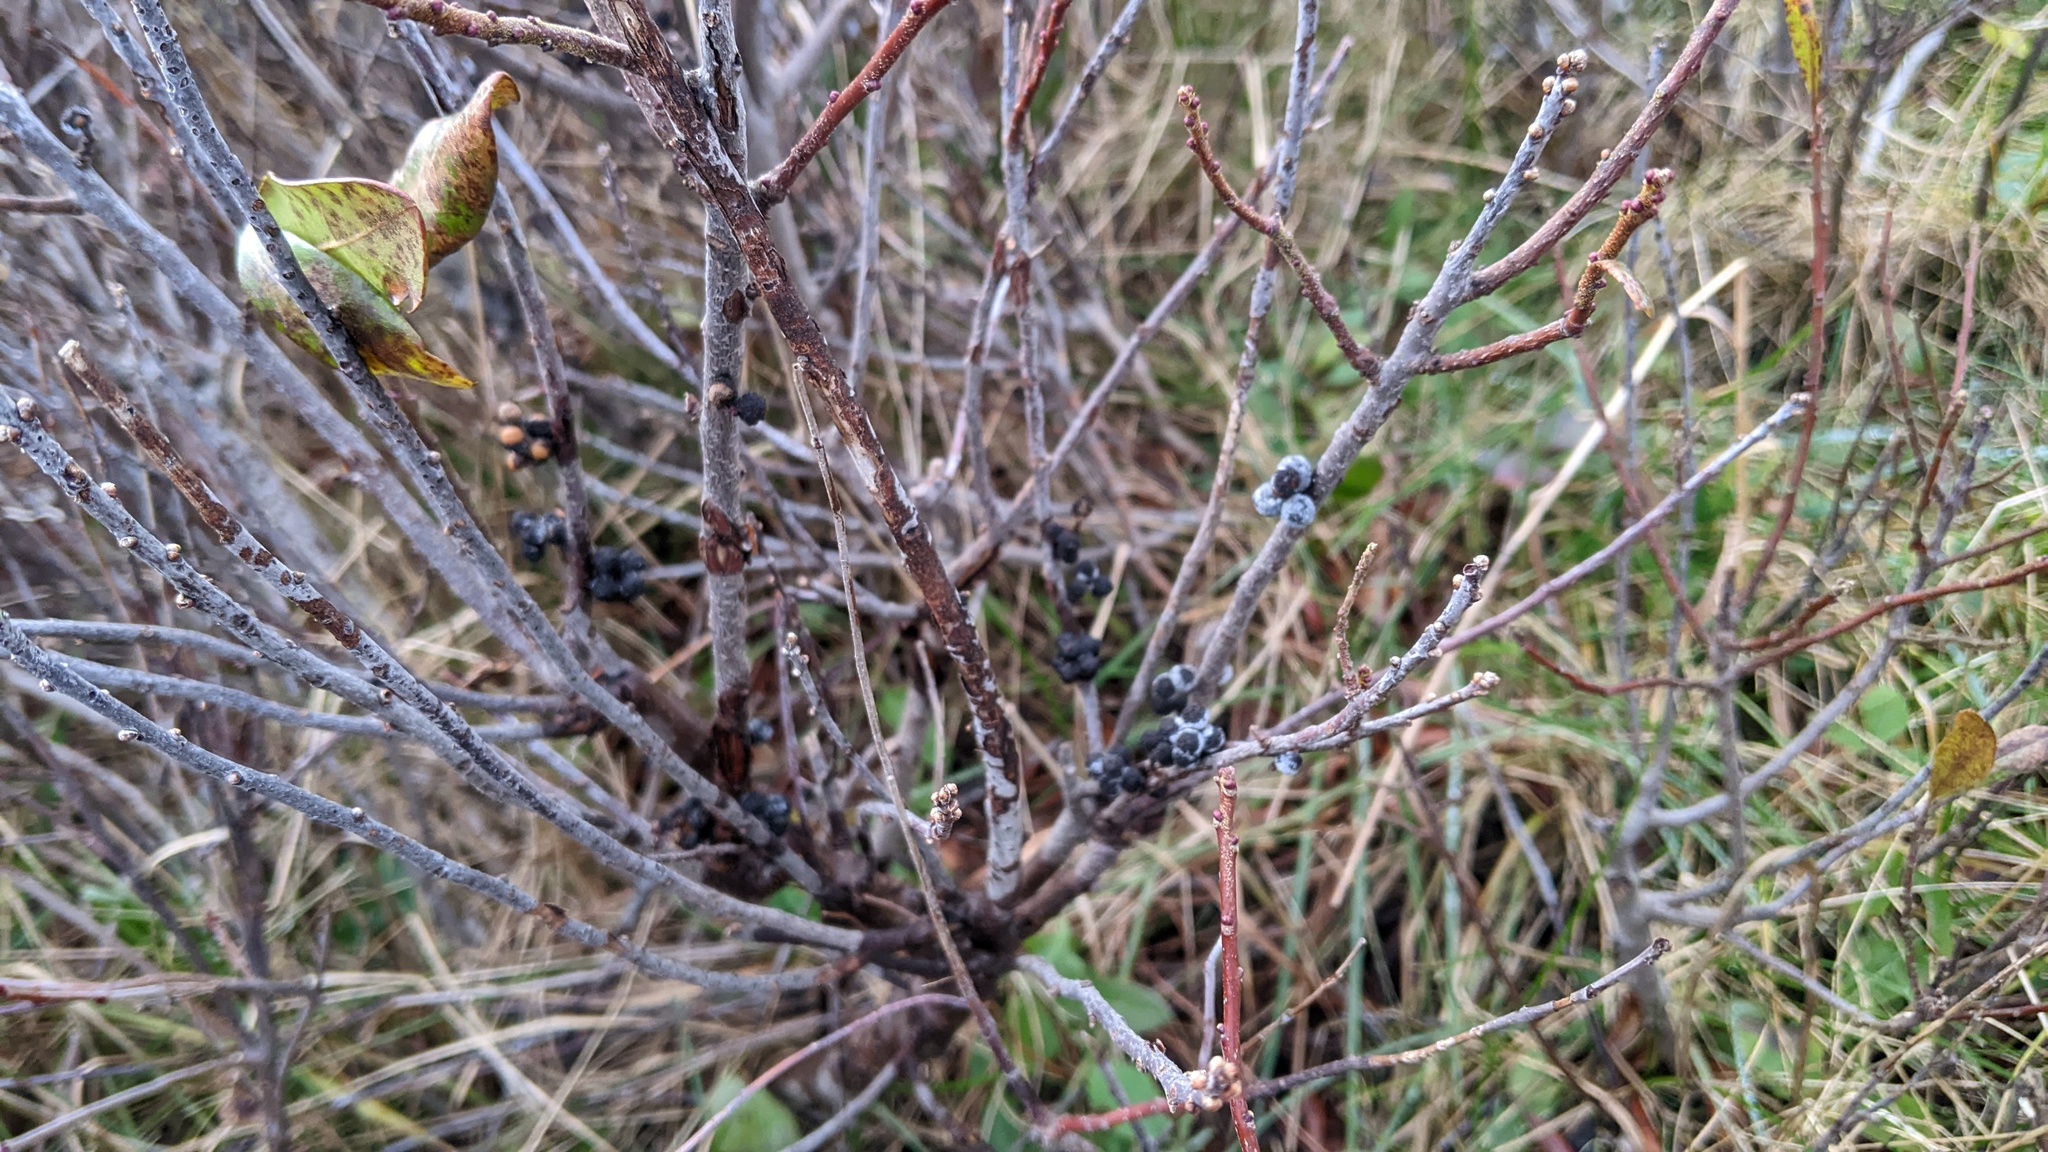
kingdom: Plantae
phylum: Tracheophyta
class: Magnoliopsida
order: Fagales
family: Myricaceae
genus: Morella
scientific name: Morella pensylvanica
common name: Northern bayberry
